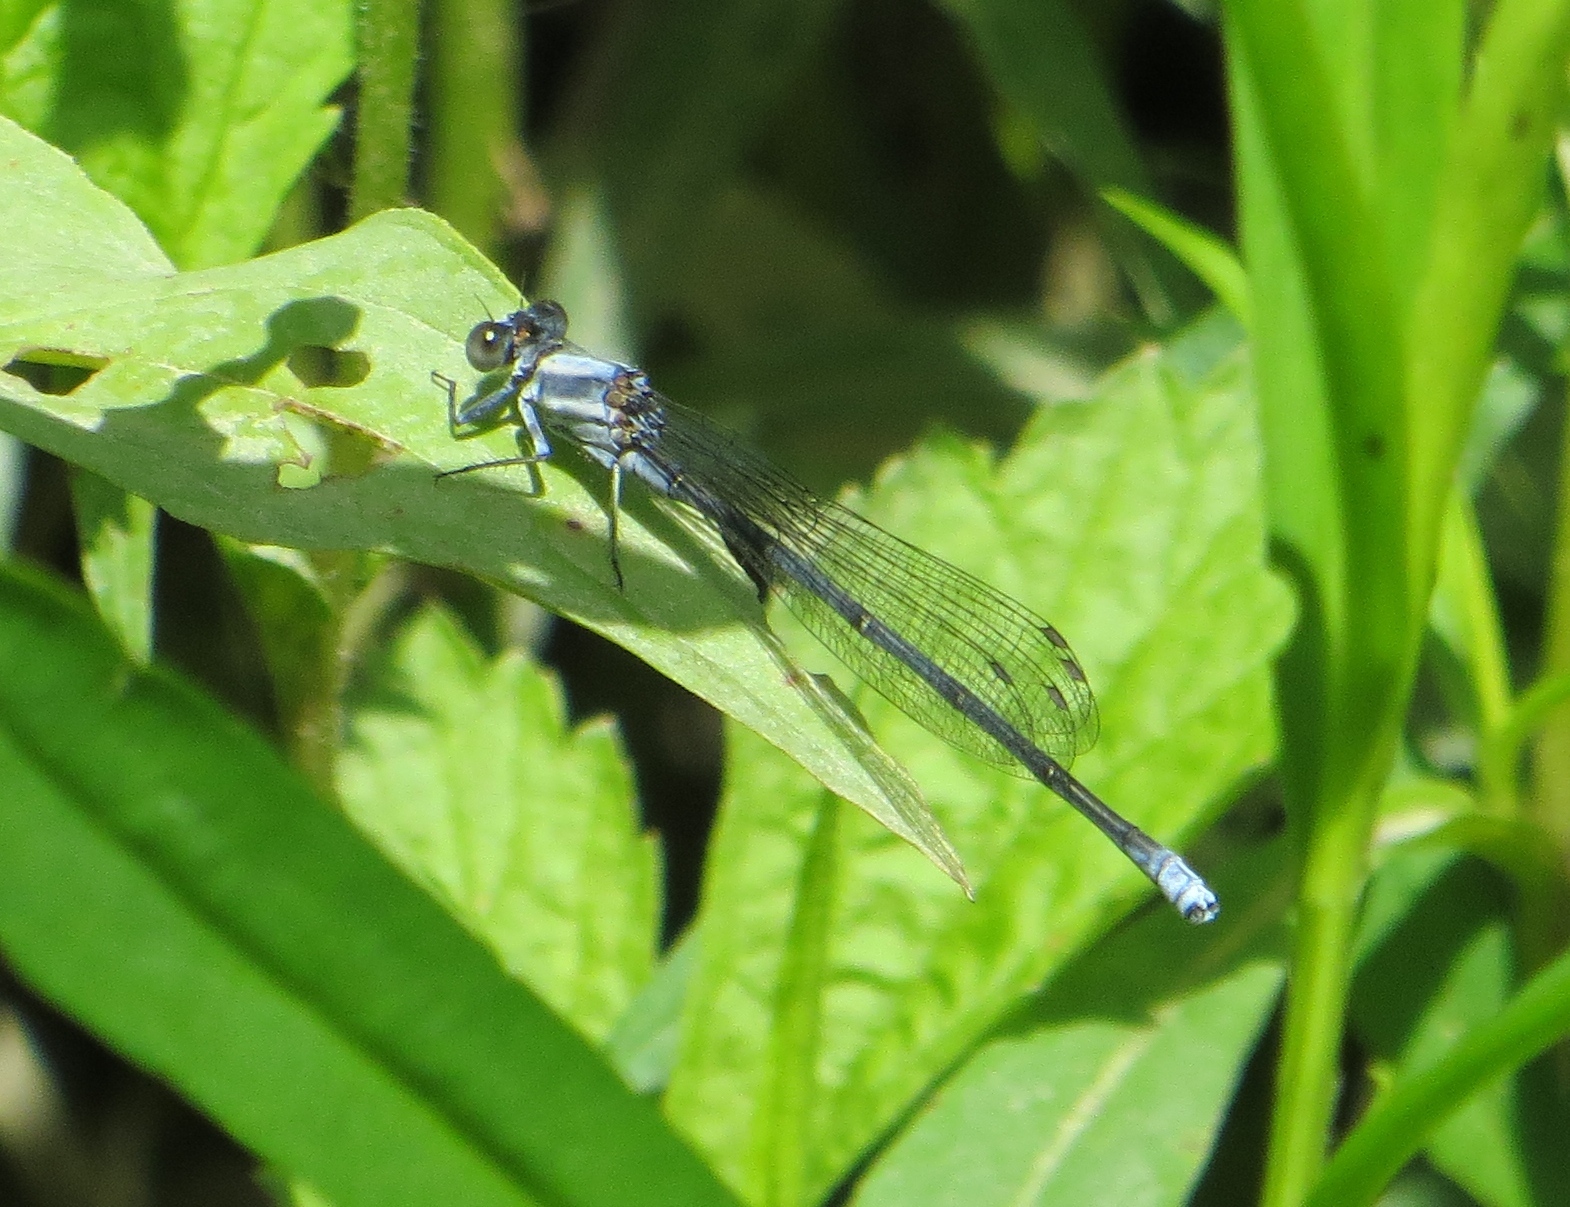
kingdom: Animalia
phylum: Arthropoda
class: Insecta
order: Odonata
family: Coenagrionidae
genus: Argia
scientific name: Argia moesta
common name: Powdered dancer
